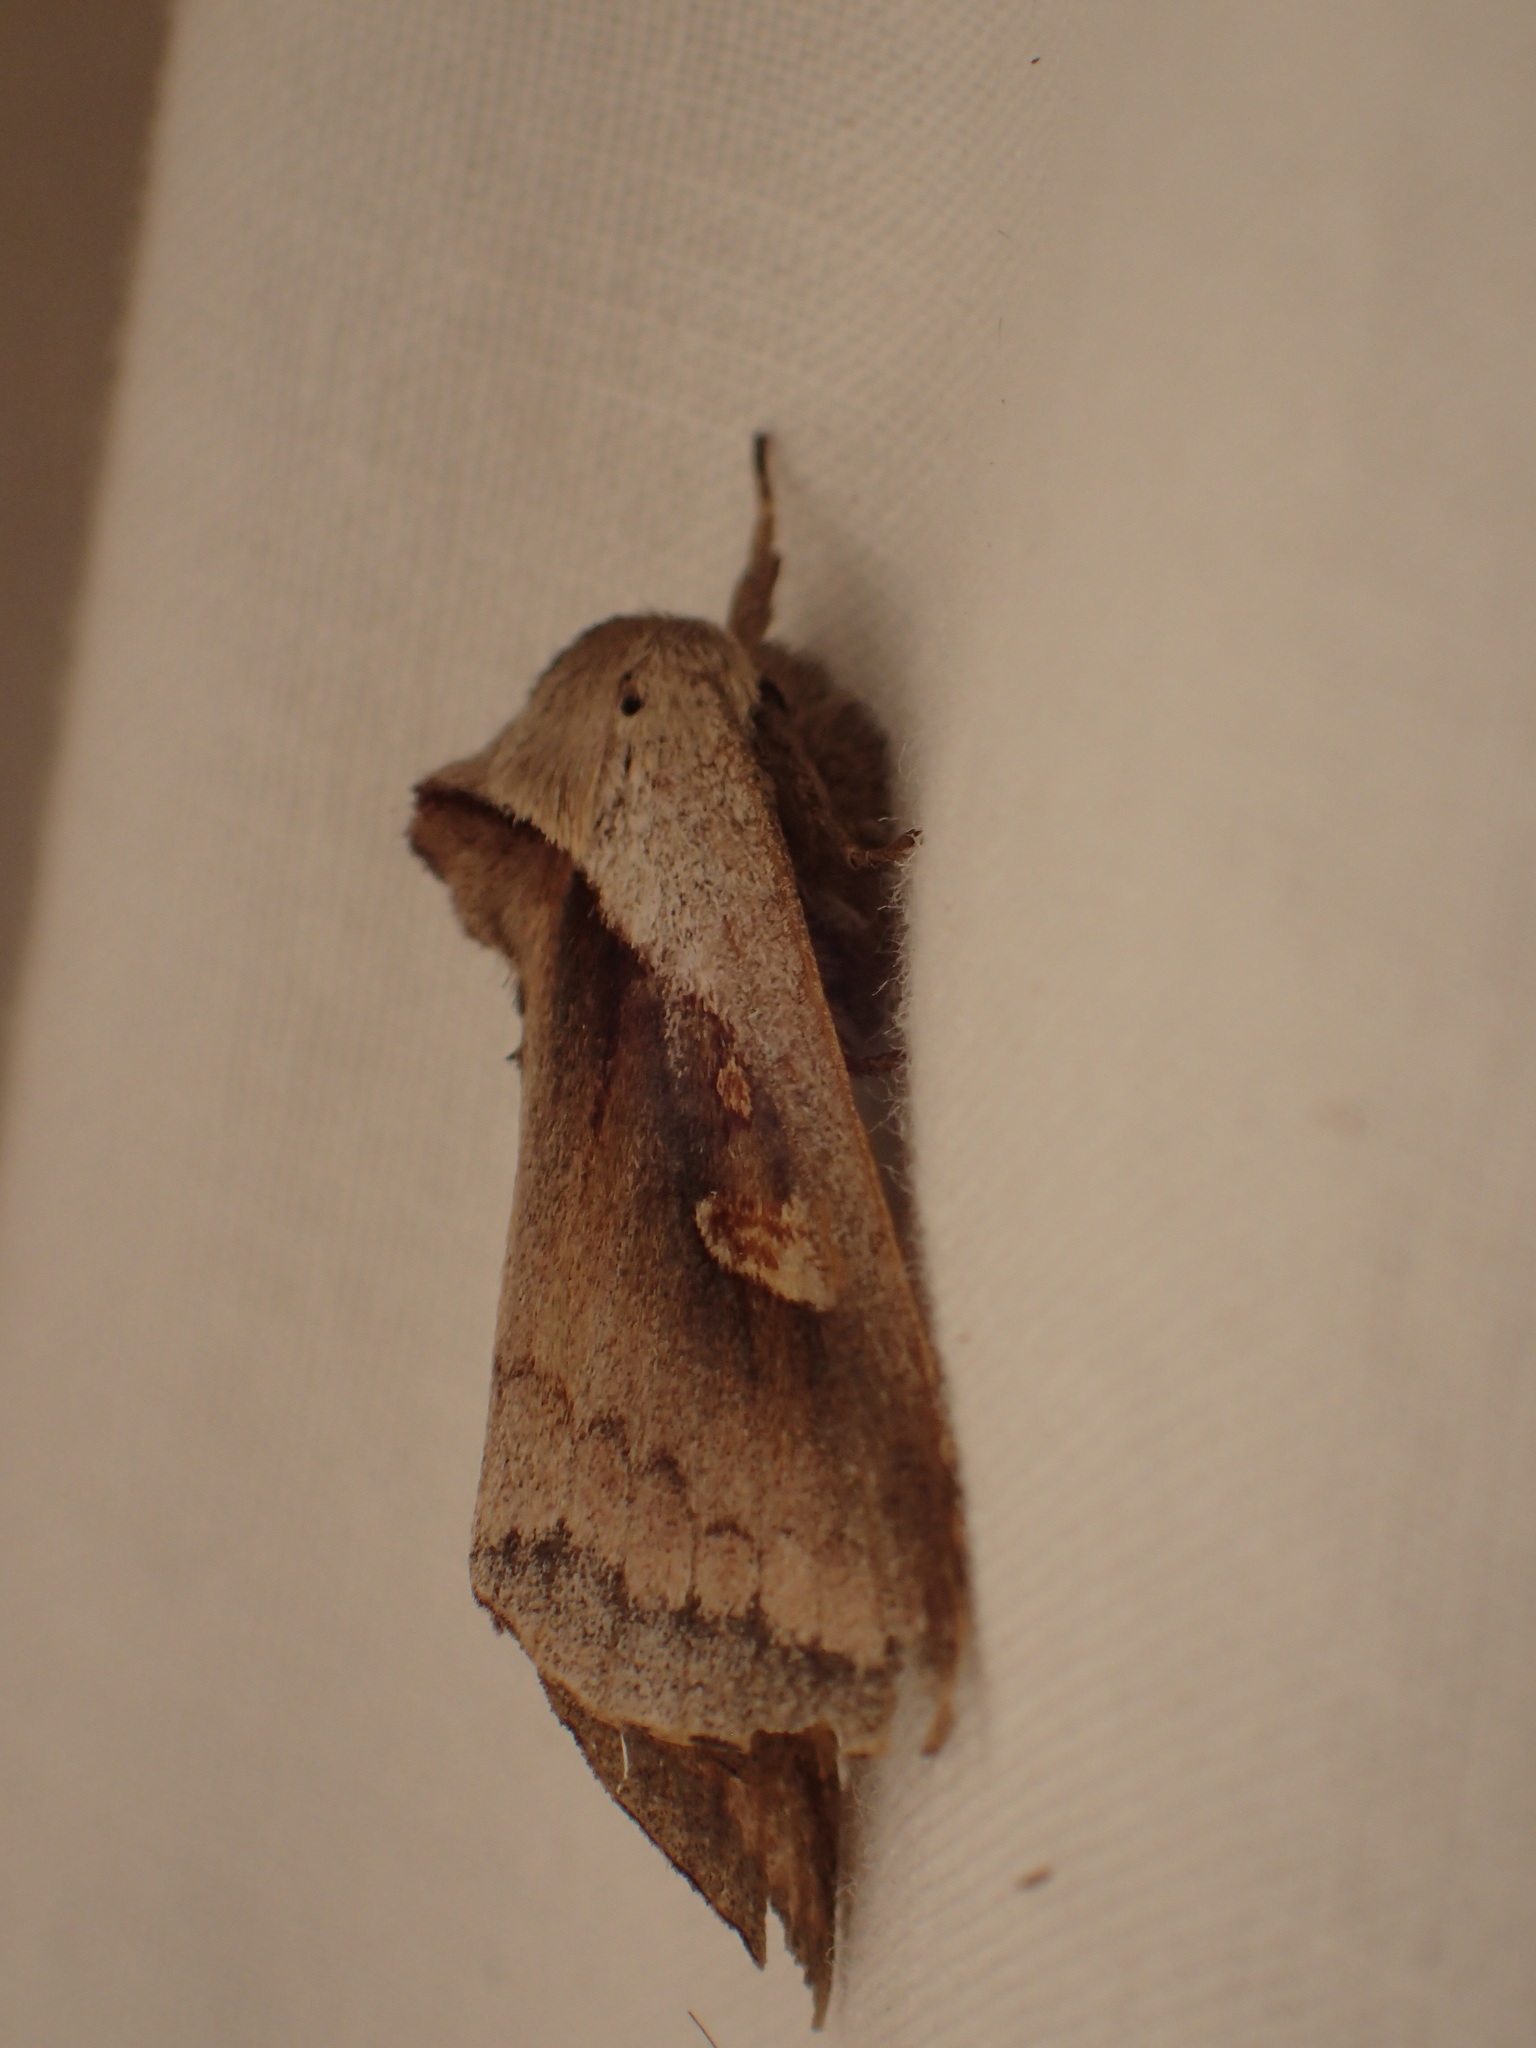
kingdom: Animalia
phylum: Arthropoda
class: Insecta
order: Lepidoptera
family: Noctuidae
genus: Bellura
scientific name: Bellura obliqua
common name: Cattail borer moth
